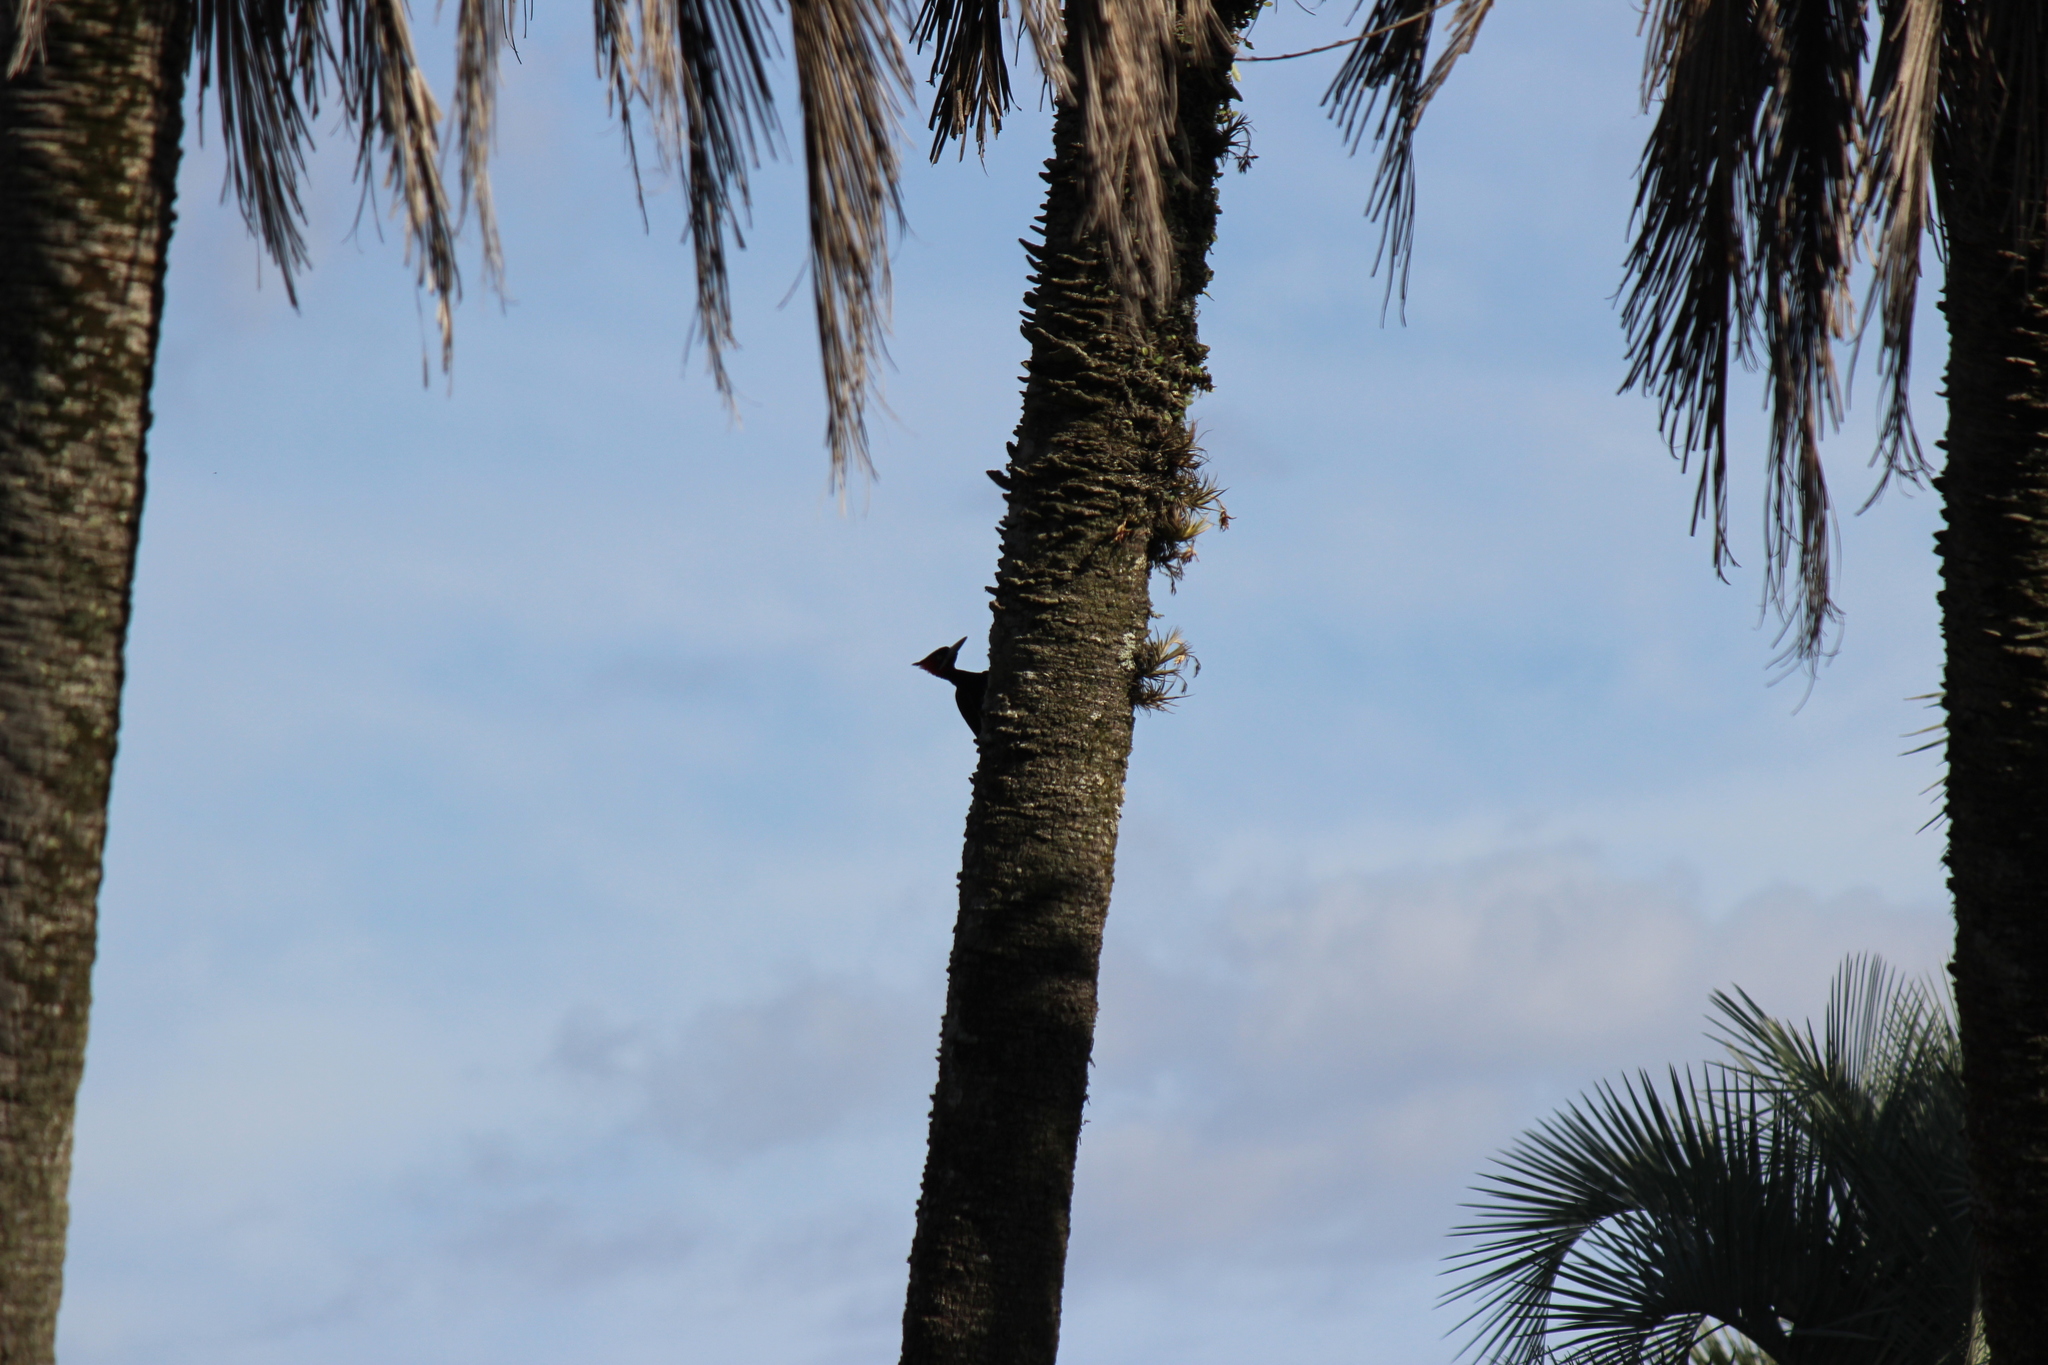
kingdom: Animalia
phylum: Chordata
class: Aves
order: Piciformes
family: Picidae
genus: Campephilus
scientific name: Campephilus leucopogon
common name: Cream-backed woodpecker
